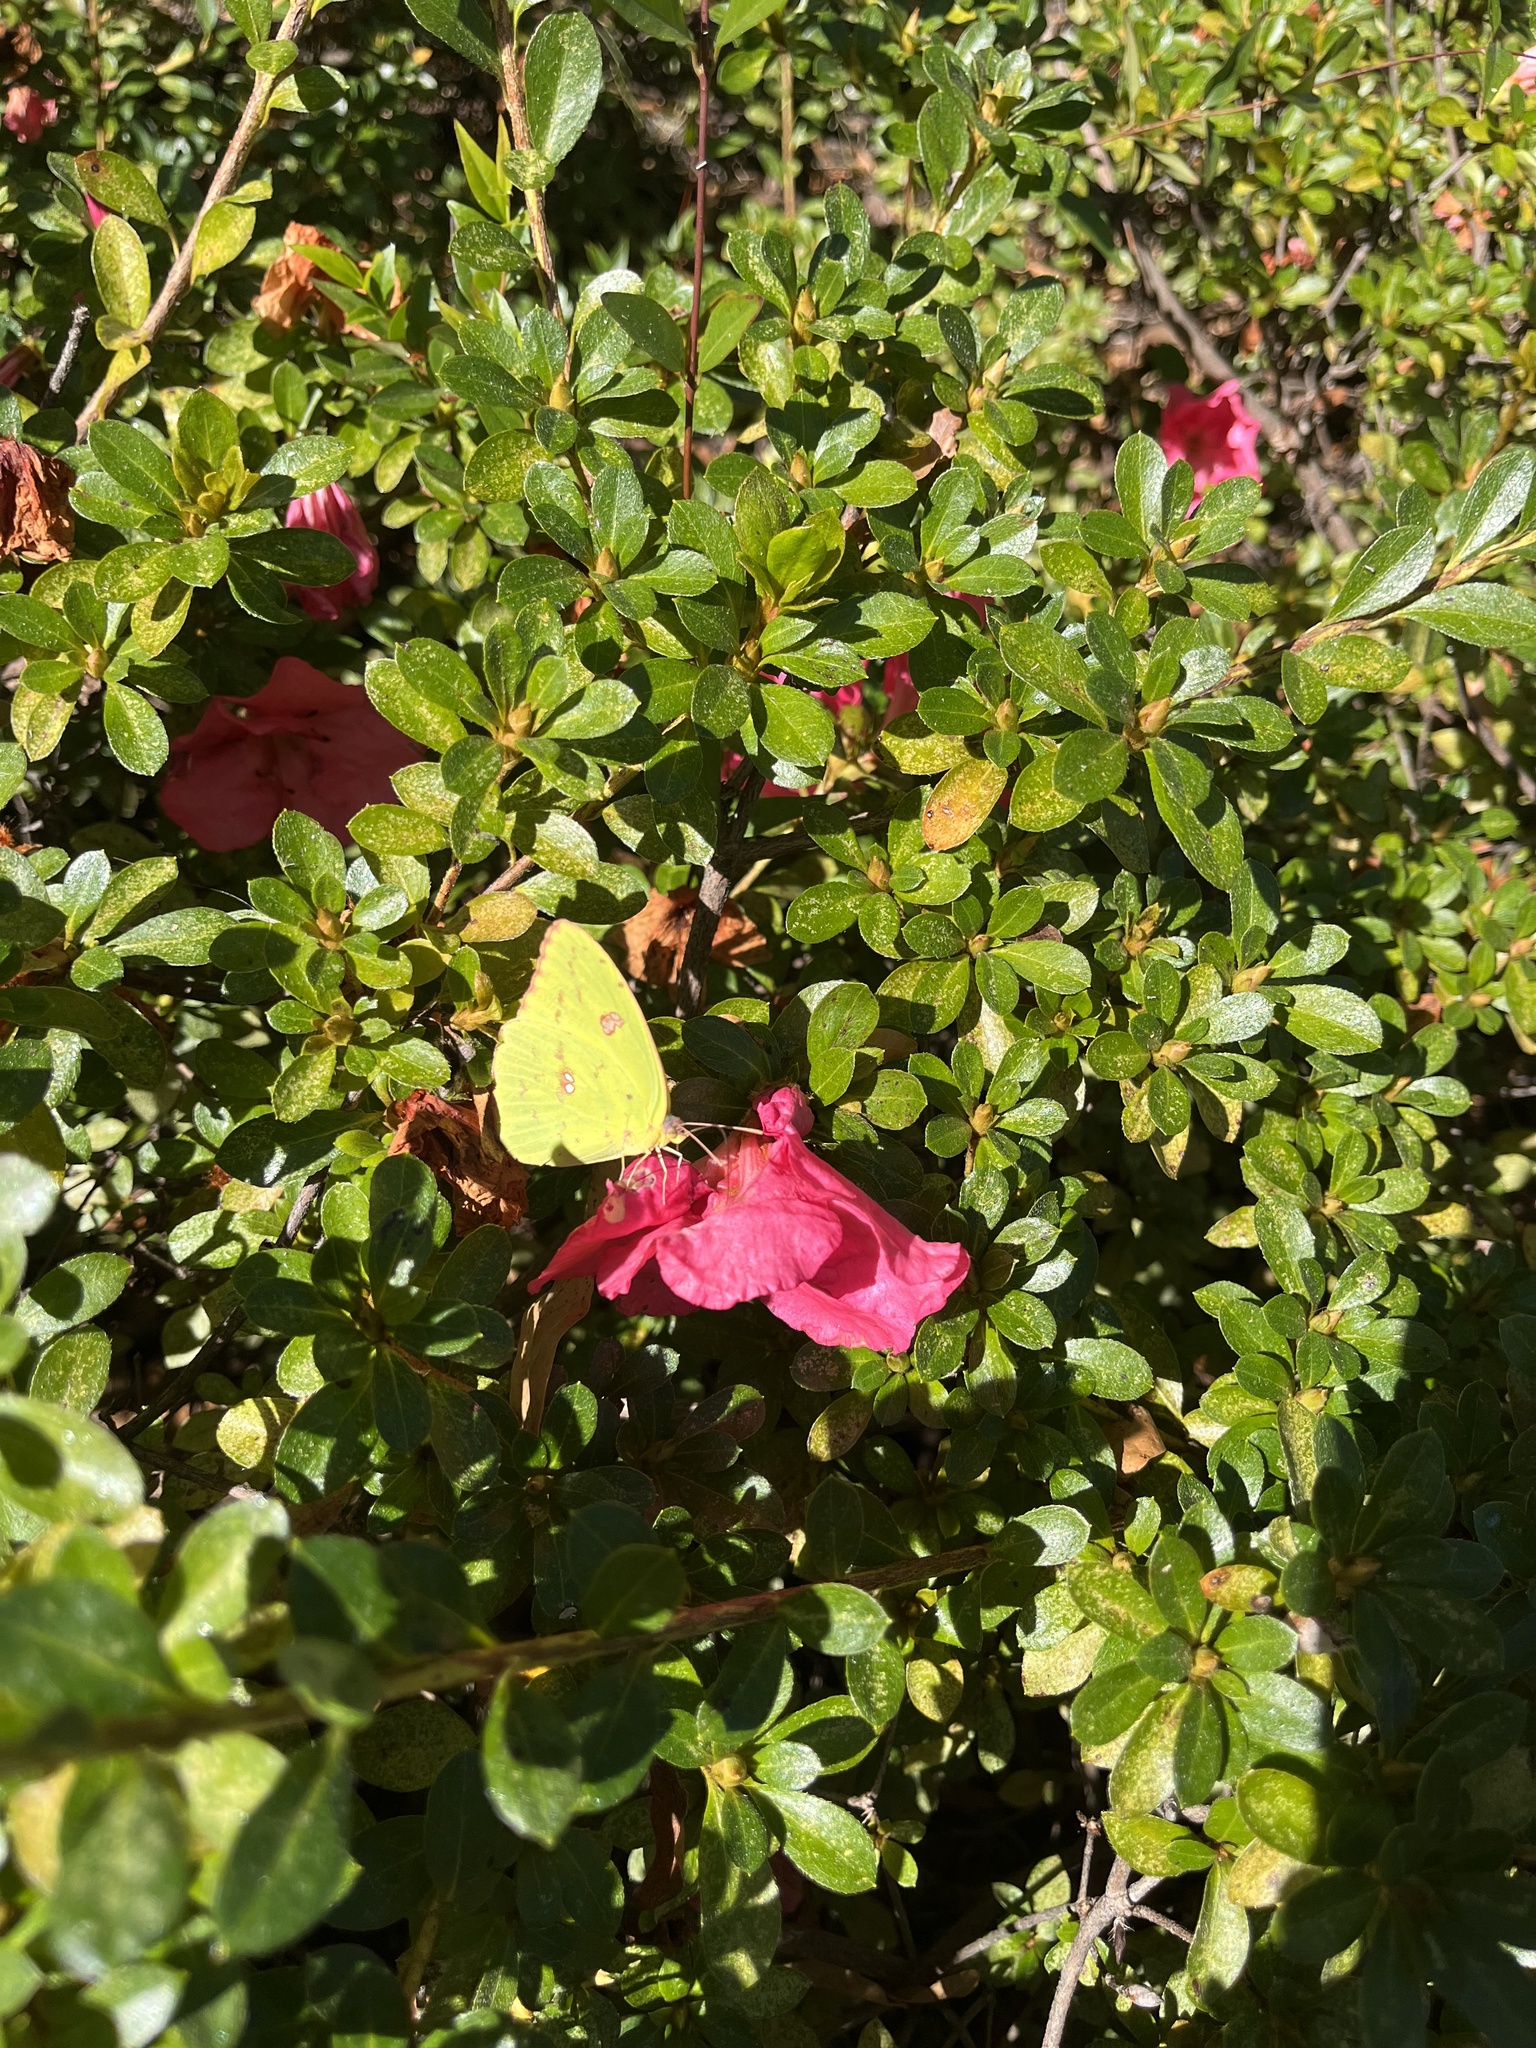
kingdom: Animalia
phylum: Arthropoda
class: Insecta
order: Lepidoptera
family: Pieridae
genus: Phoebis
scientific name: Phoebis sennae
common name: Cloudless sulphur
